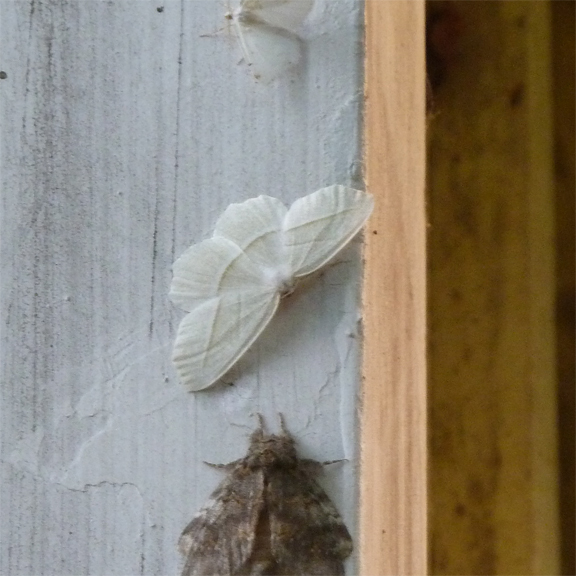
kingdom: Animalia
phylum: Arthropoda
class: Insecta
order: Lepidoptera
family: Geometridae
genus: Campaea
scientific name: Campaea perlata
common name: Fringed looper
